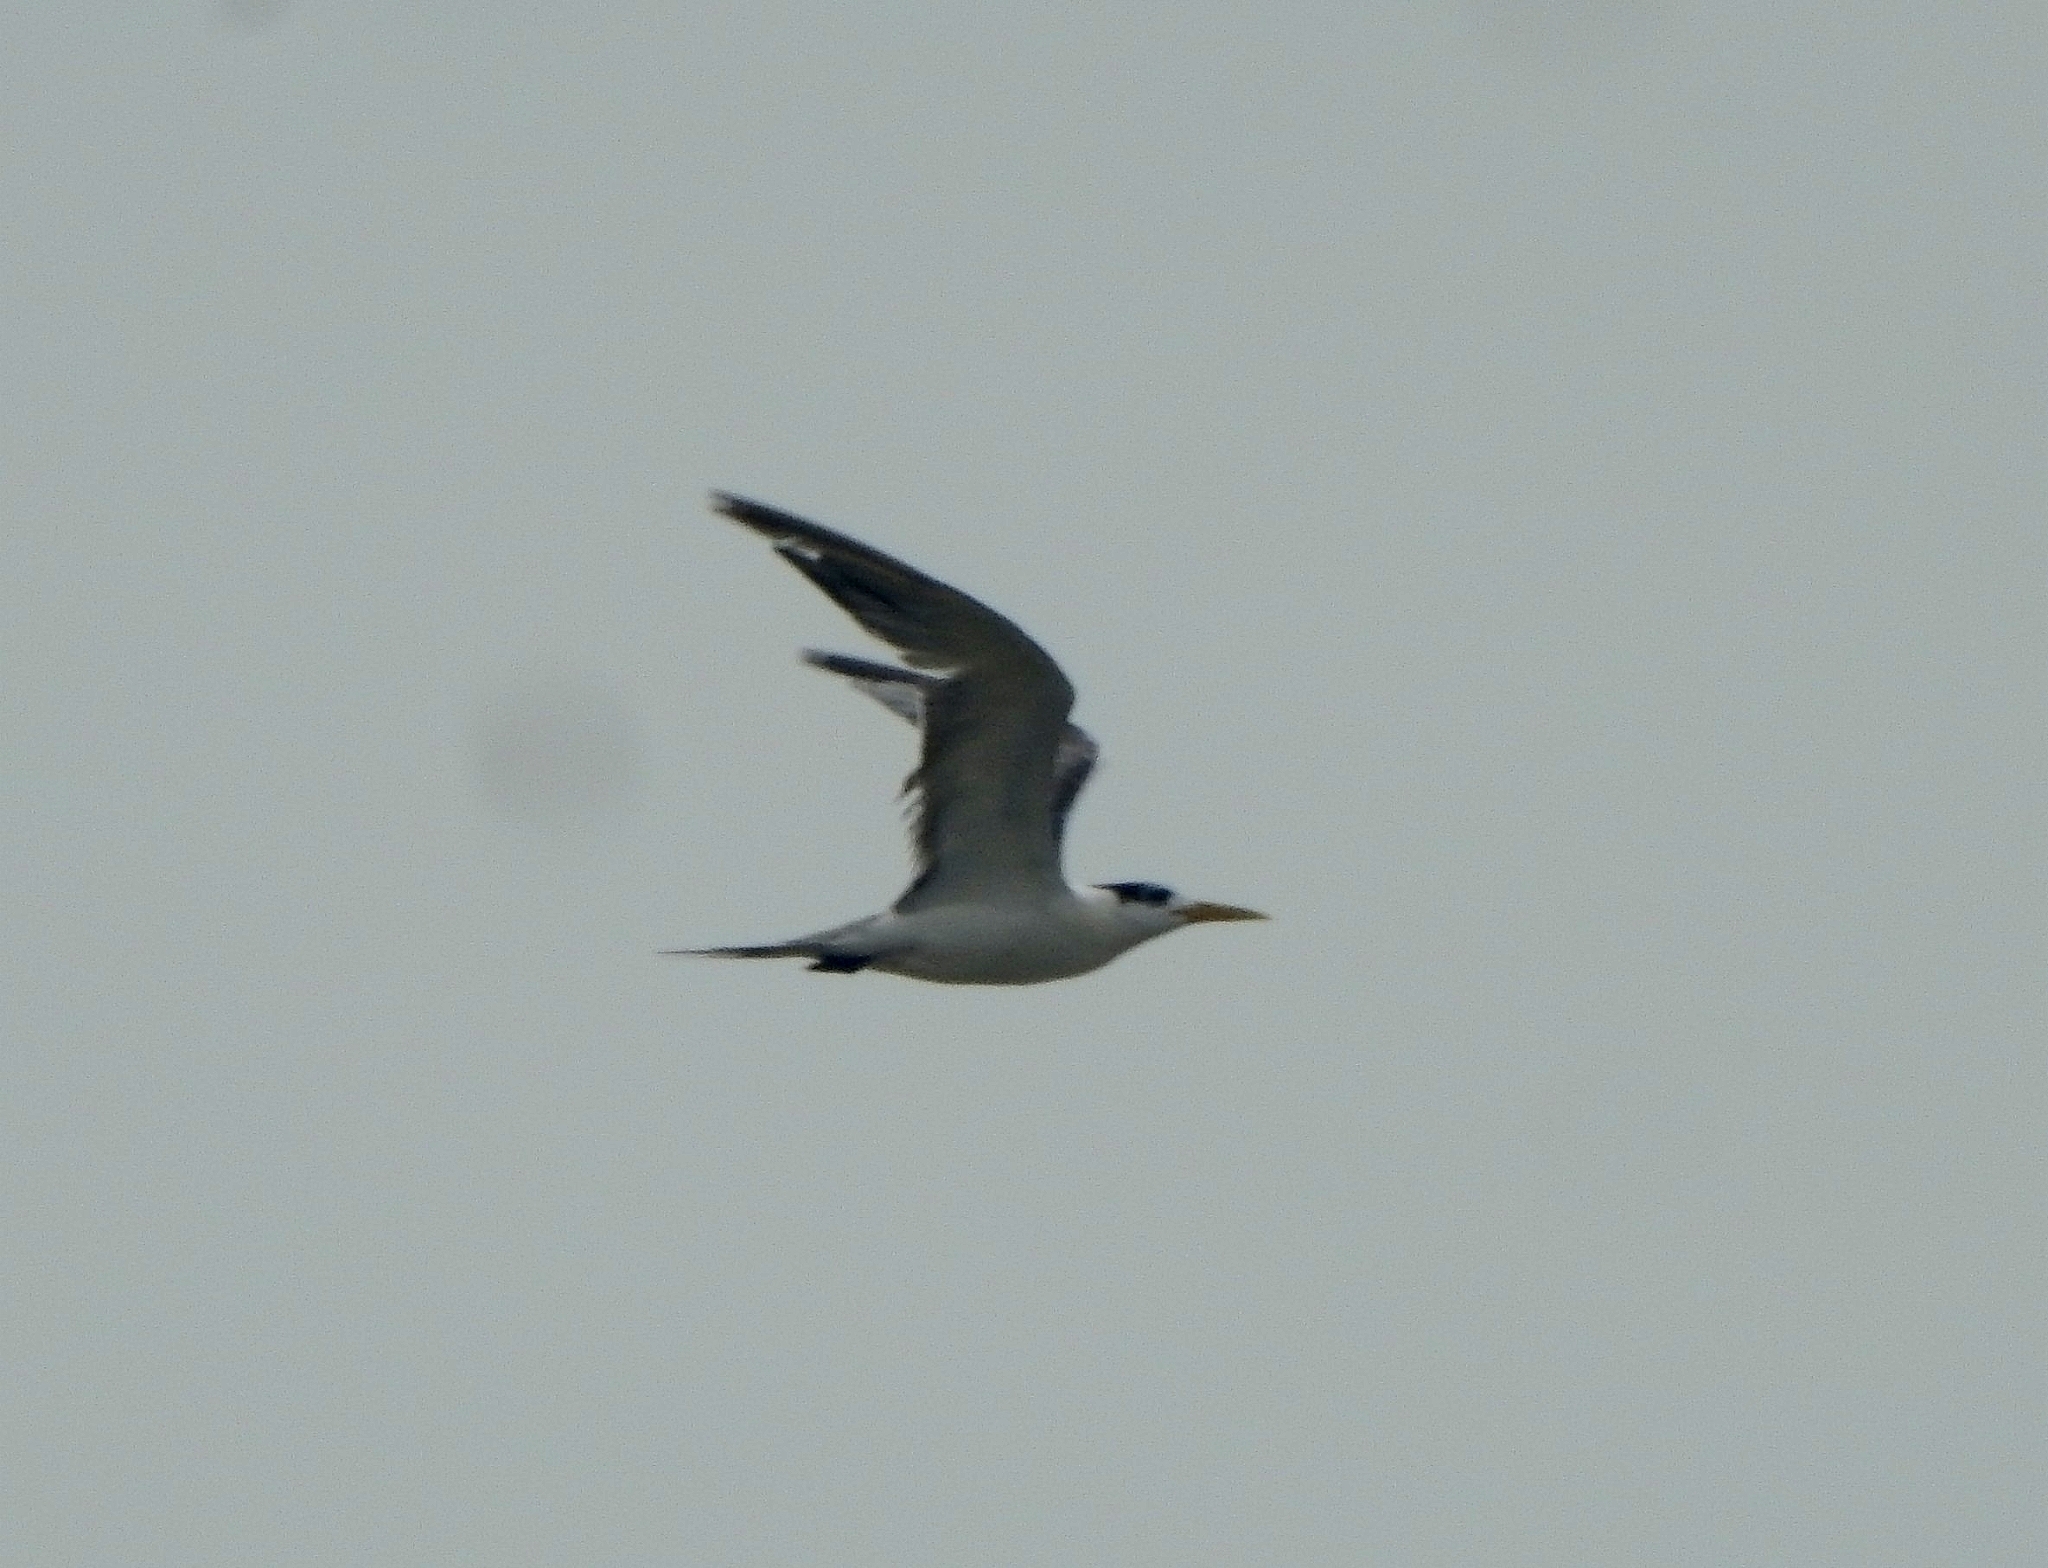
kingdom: Animalia
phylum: Chordata
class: Aves
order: Charadriiformes
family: Laridae
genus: Thalasseus
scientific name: Thalasseus bergii
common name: Greater crested tern
